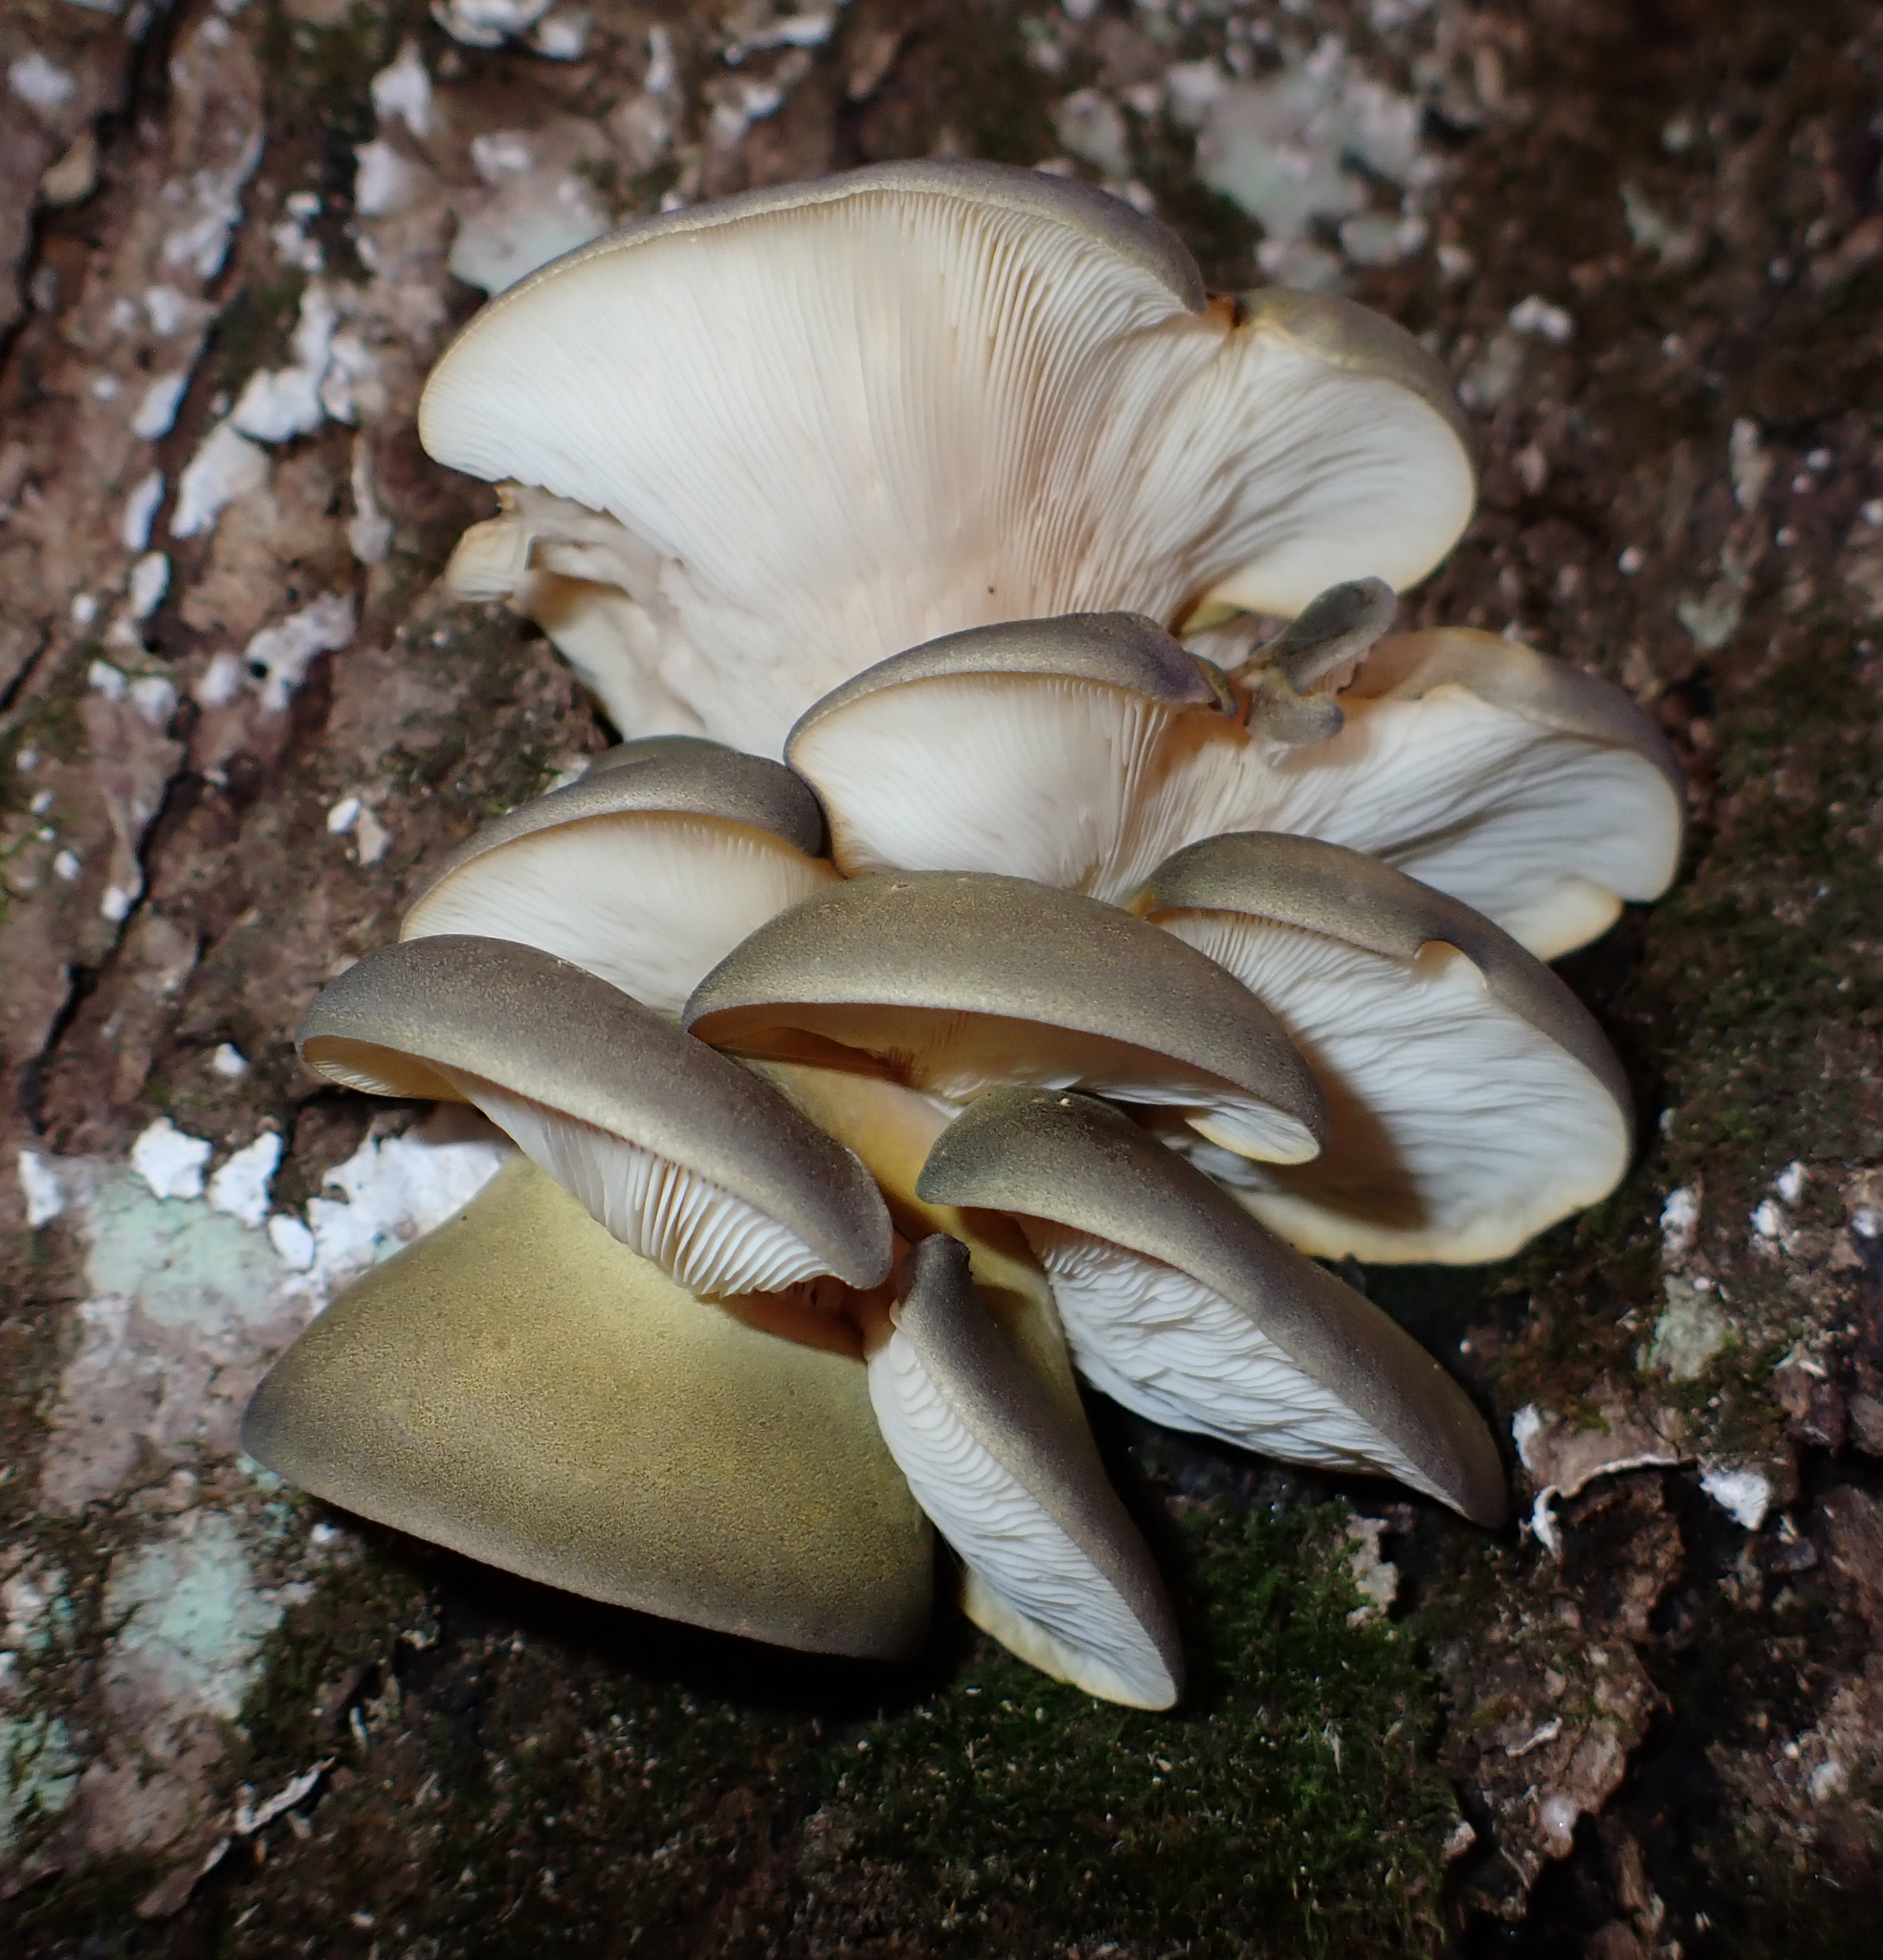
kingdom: Fungi
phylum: Basidiomycota
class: Agaricomycetes
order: Agaricales
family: Sarcomyxaceae
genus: Sarcomyxa
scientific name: Sarcomyxa serotina
